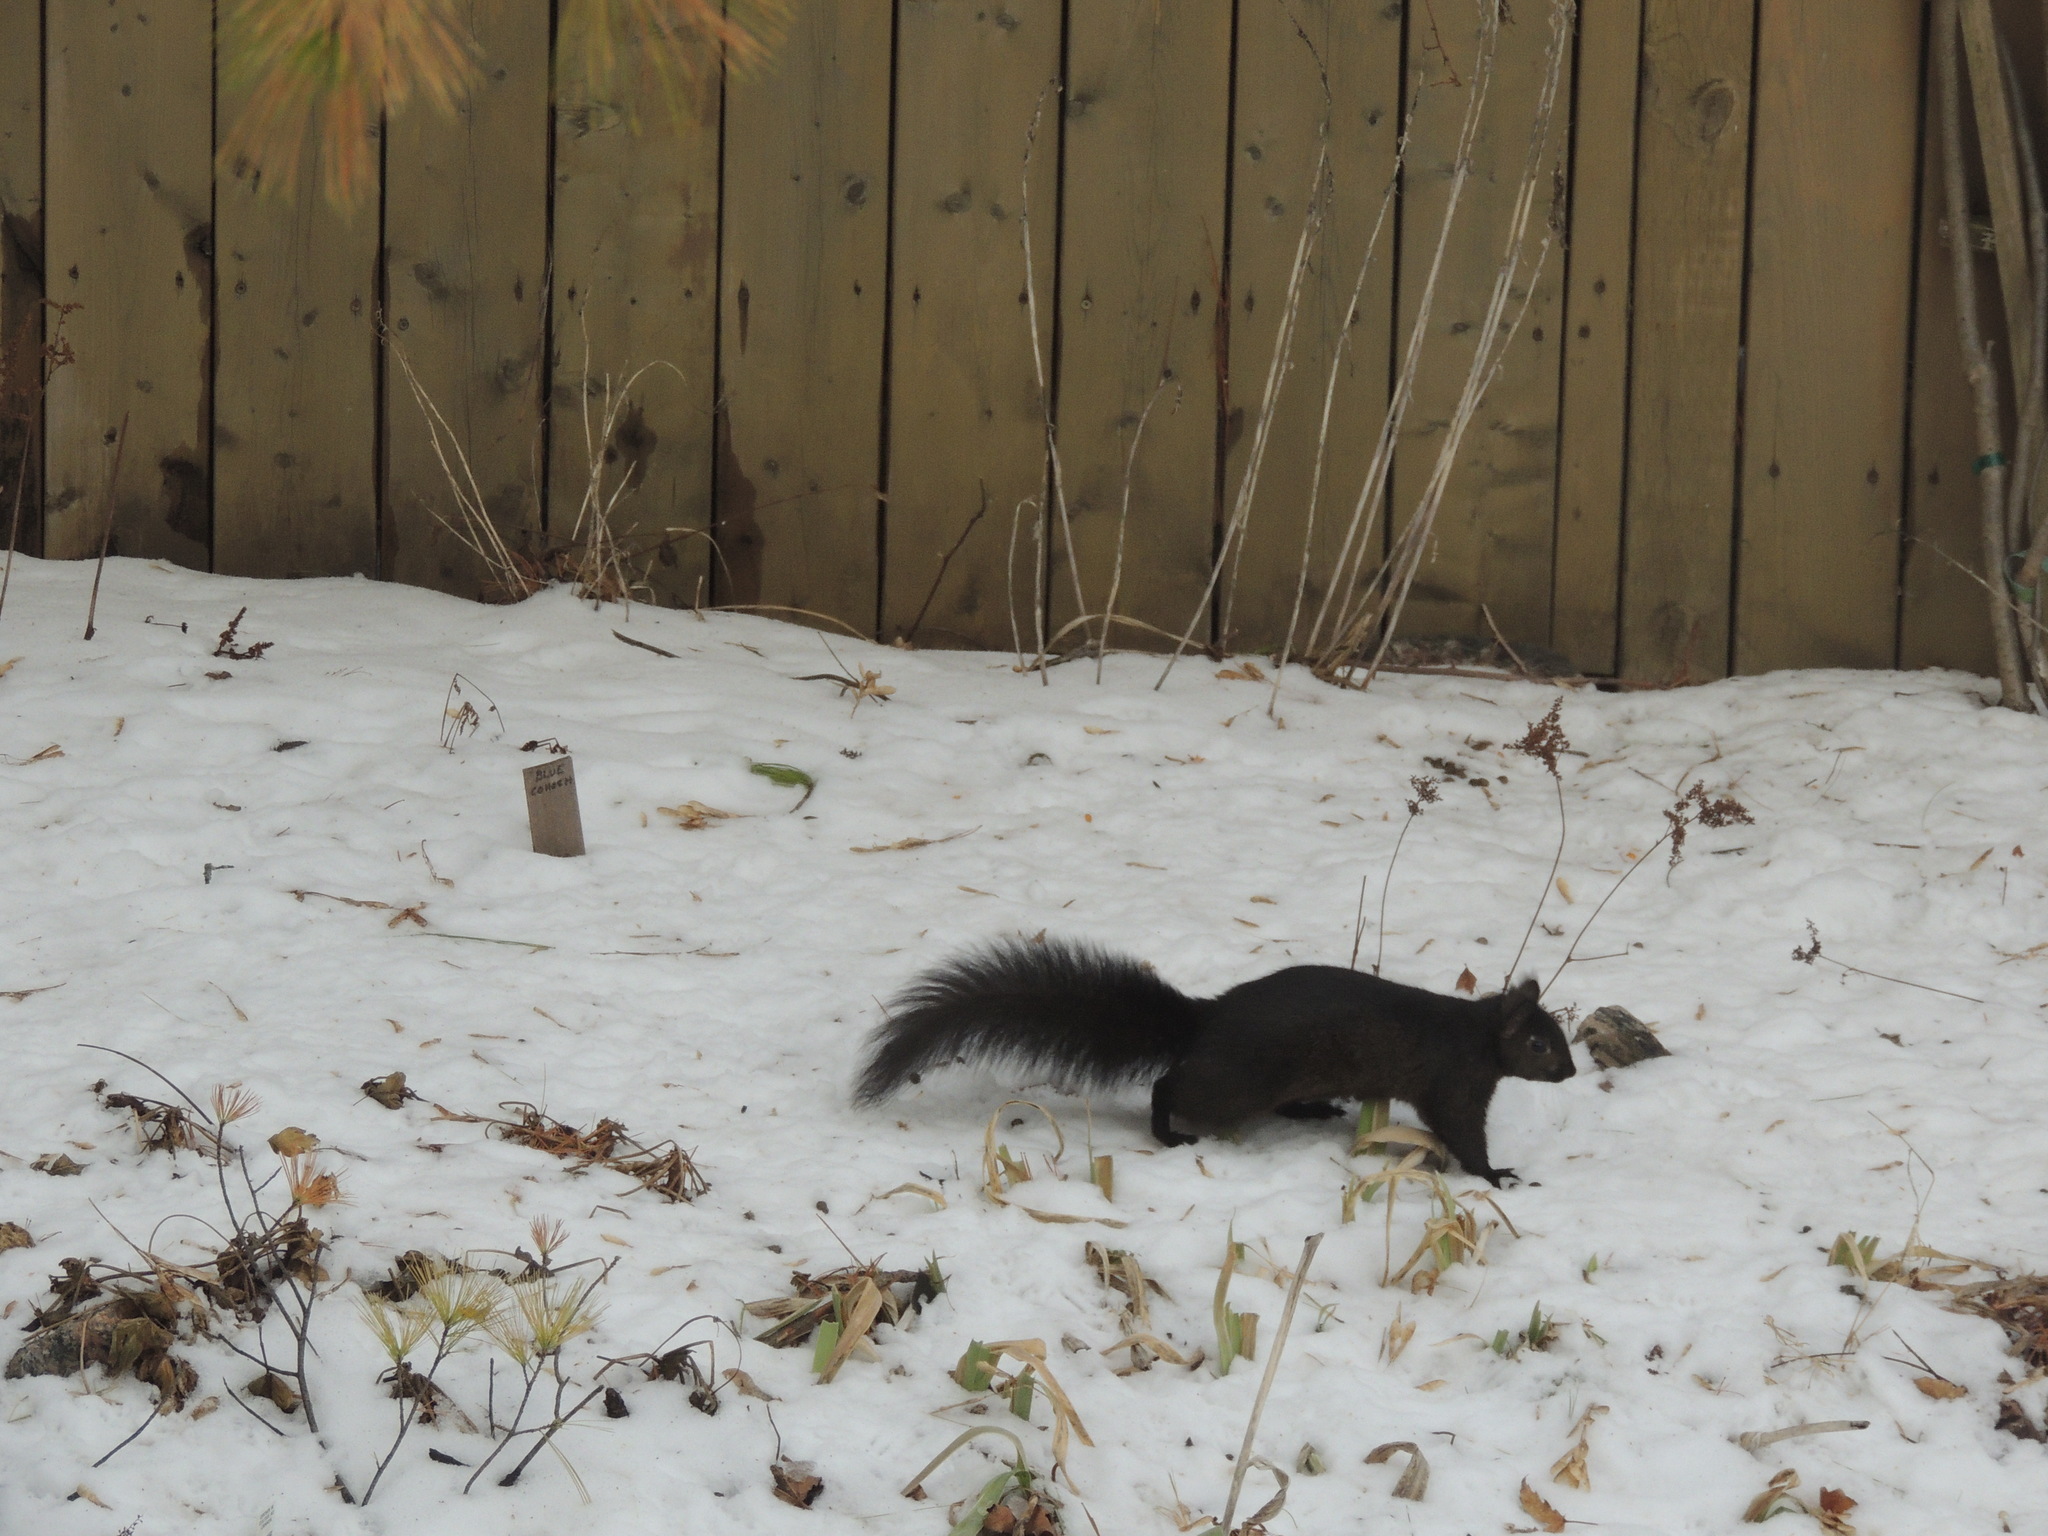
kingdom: Animalia
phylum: Chordata
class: Mammalia
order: Rodentia
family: Sciuridae
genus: Sciurus
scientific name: Sciurus carolinensis
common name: Eastern gray squirrel
